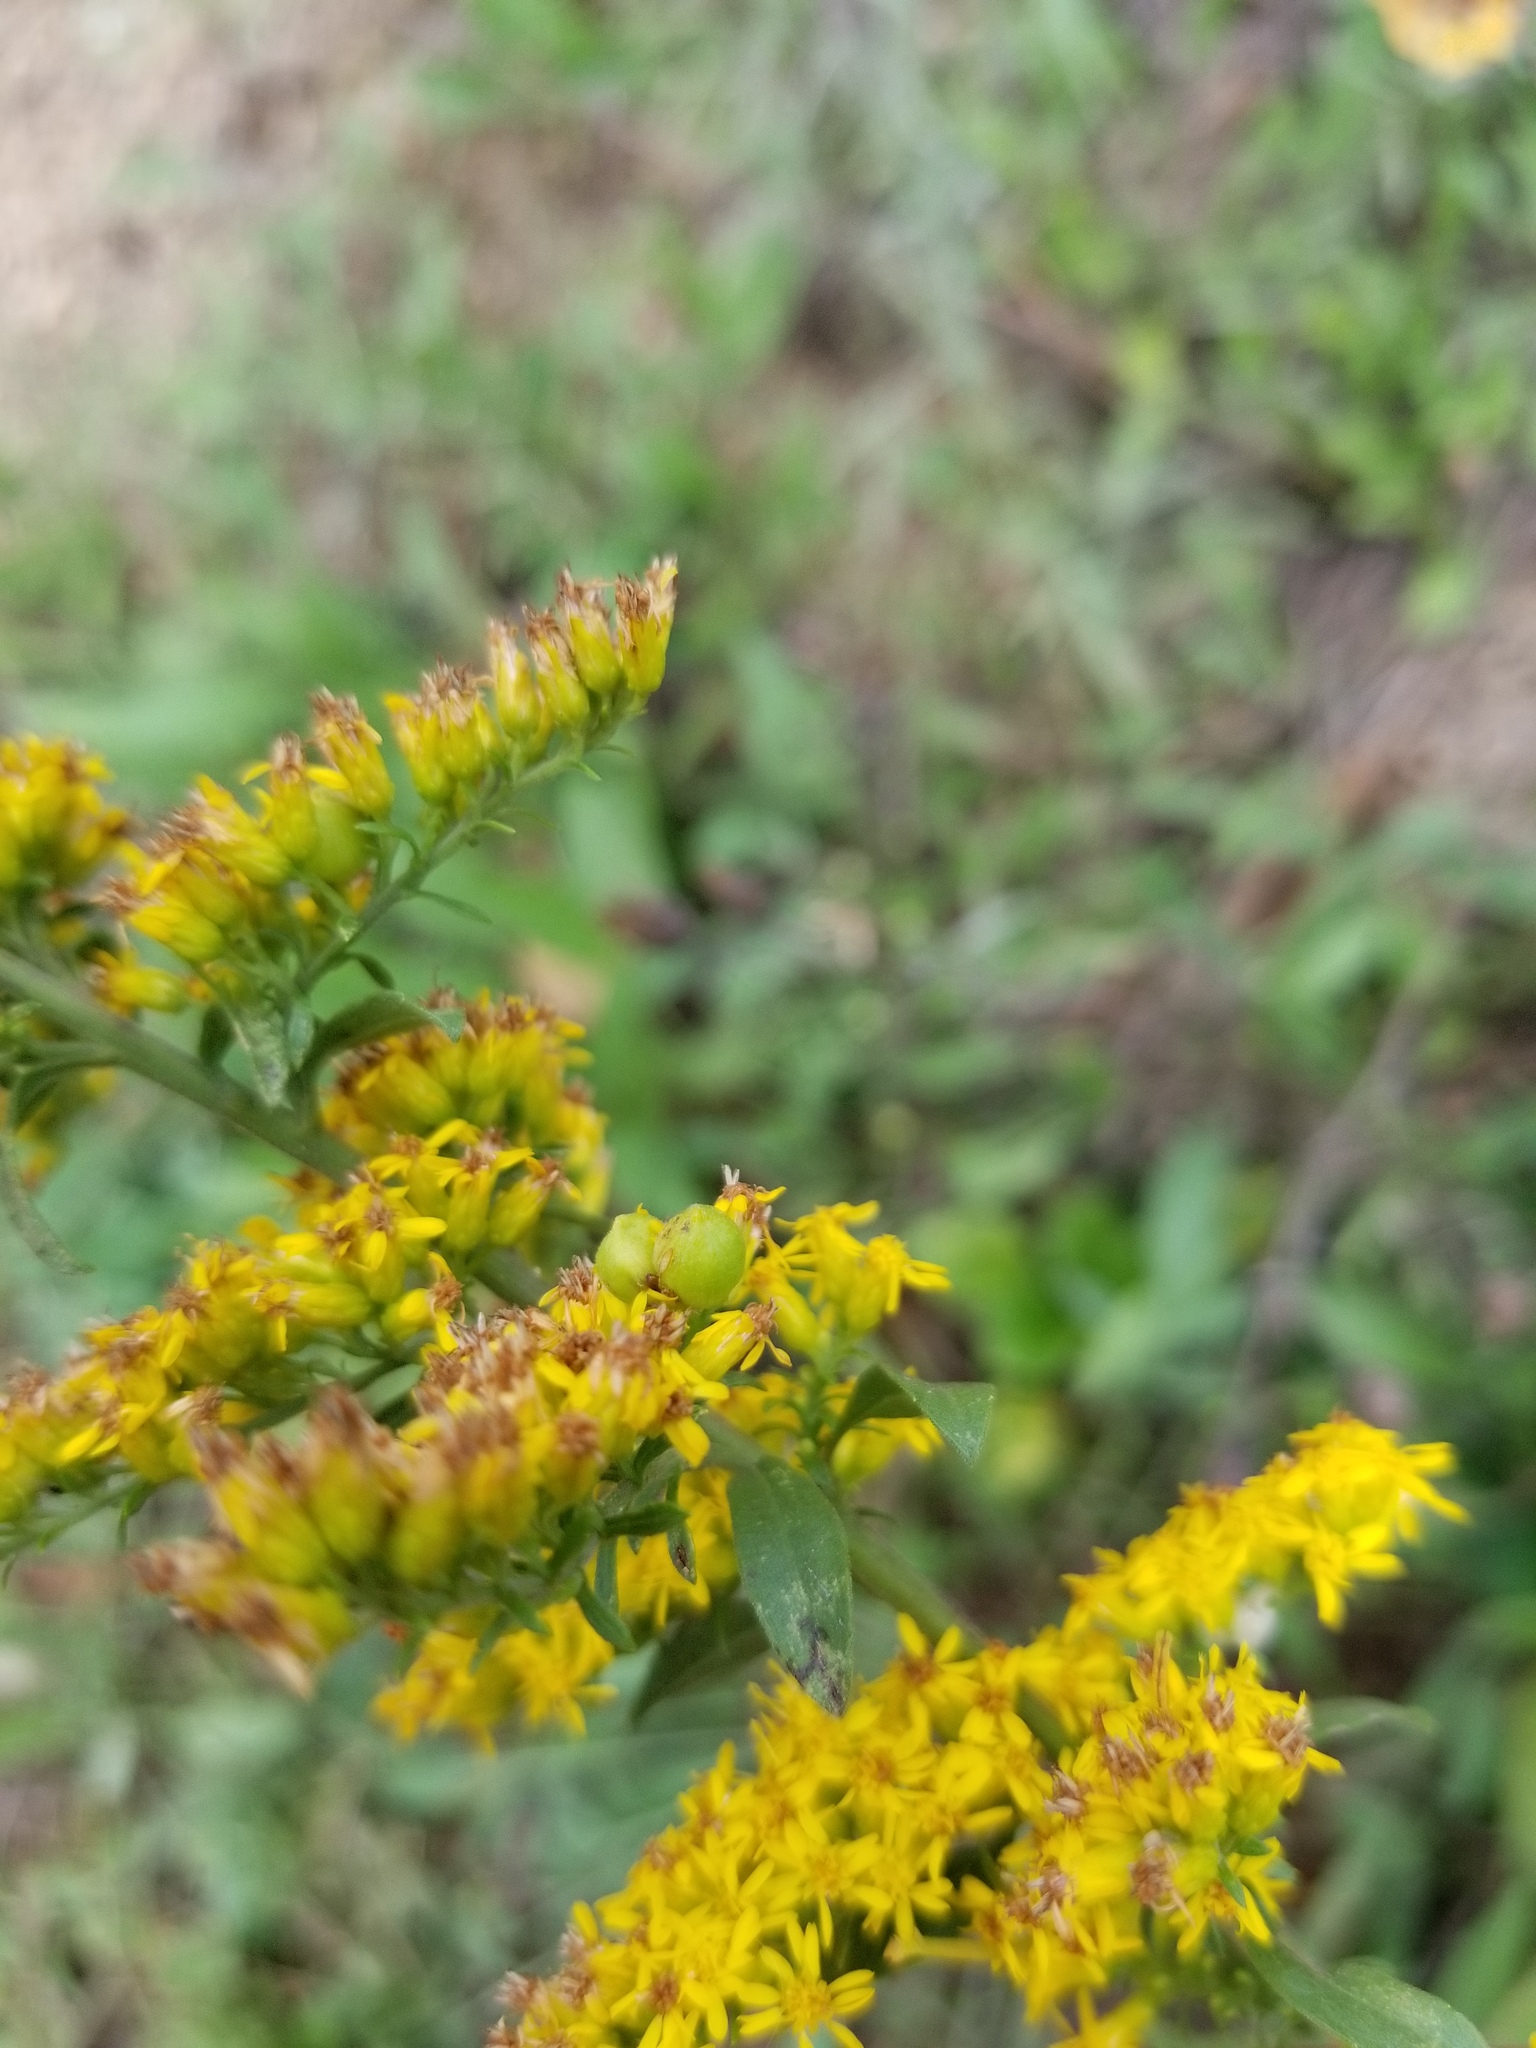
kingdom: Animalia
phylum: Arthropoda
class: Insecta
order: Diptera
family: Cecidomyiidae
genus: Schizomyia
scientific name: Schizomyia racemicola
